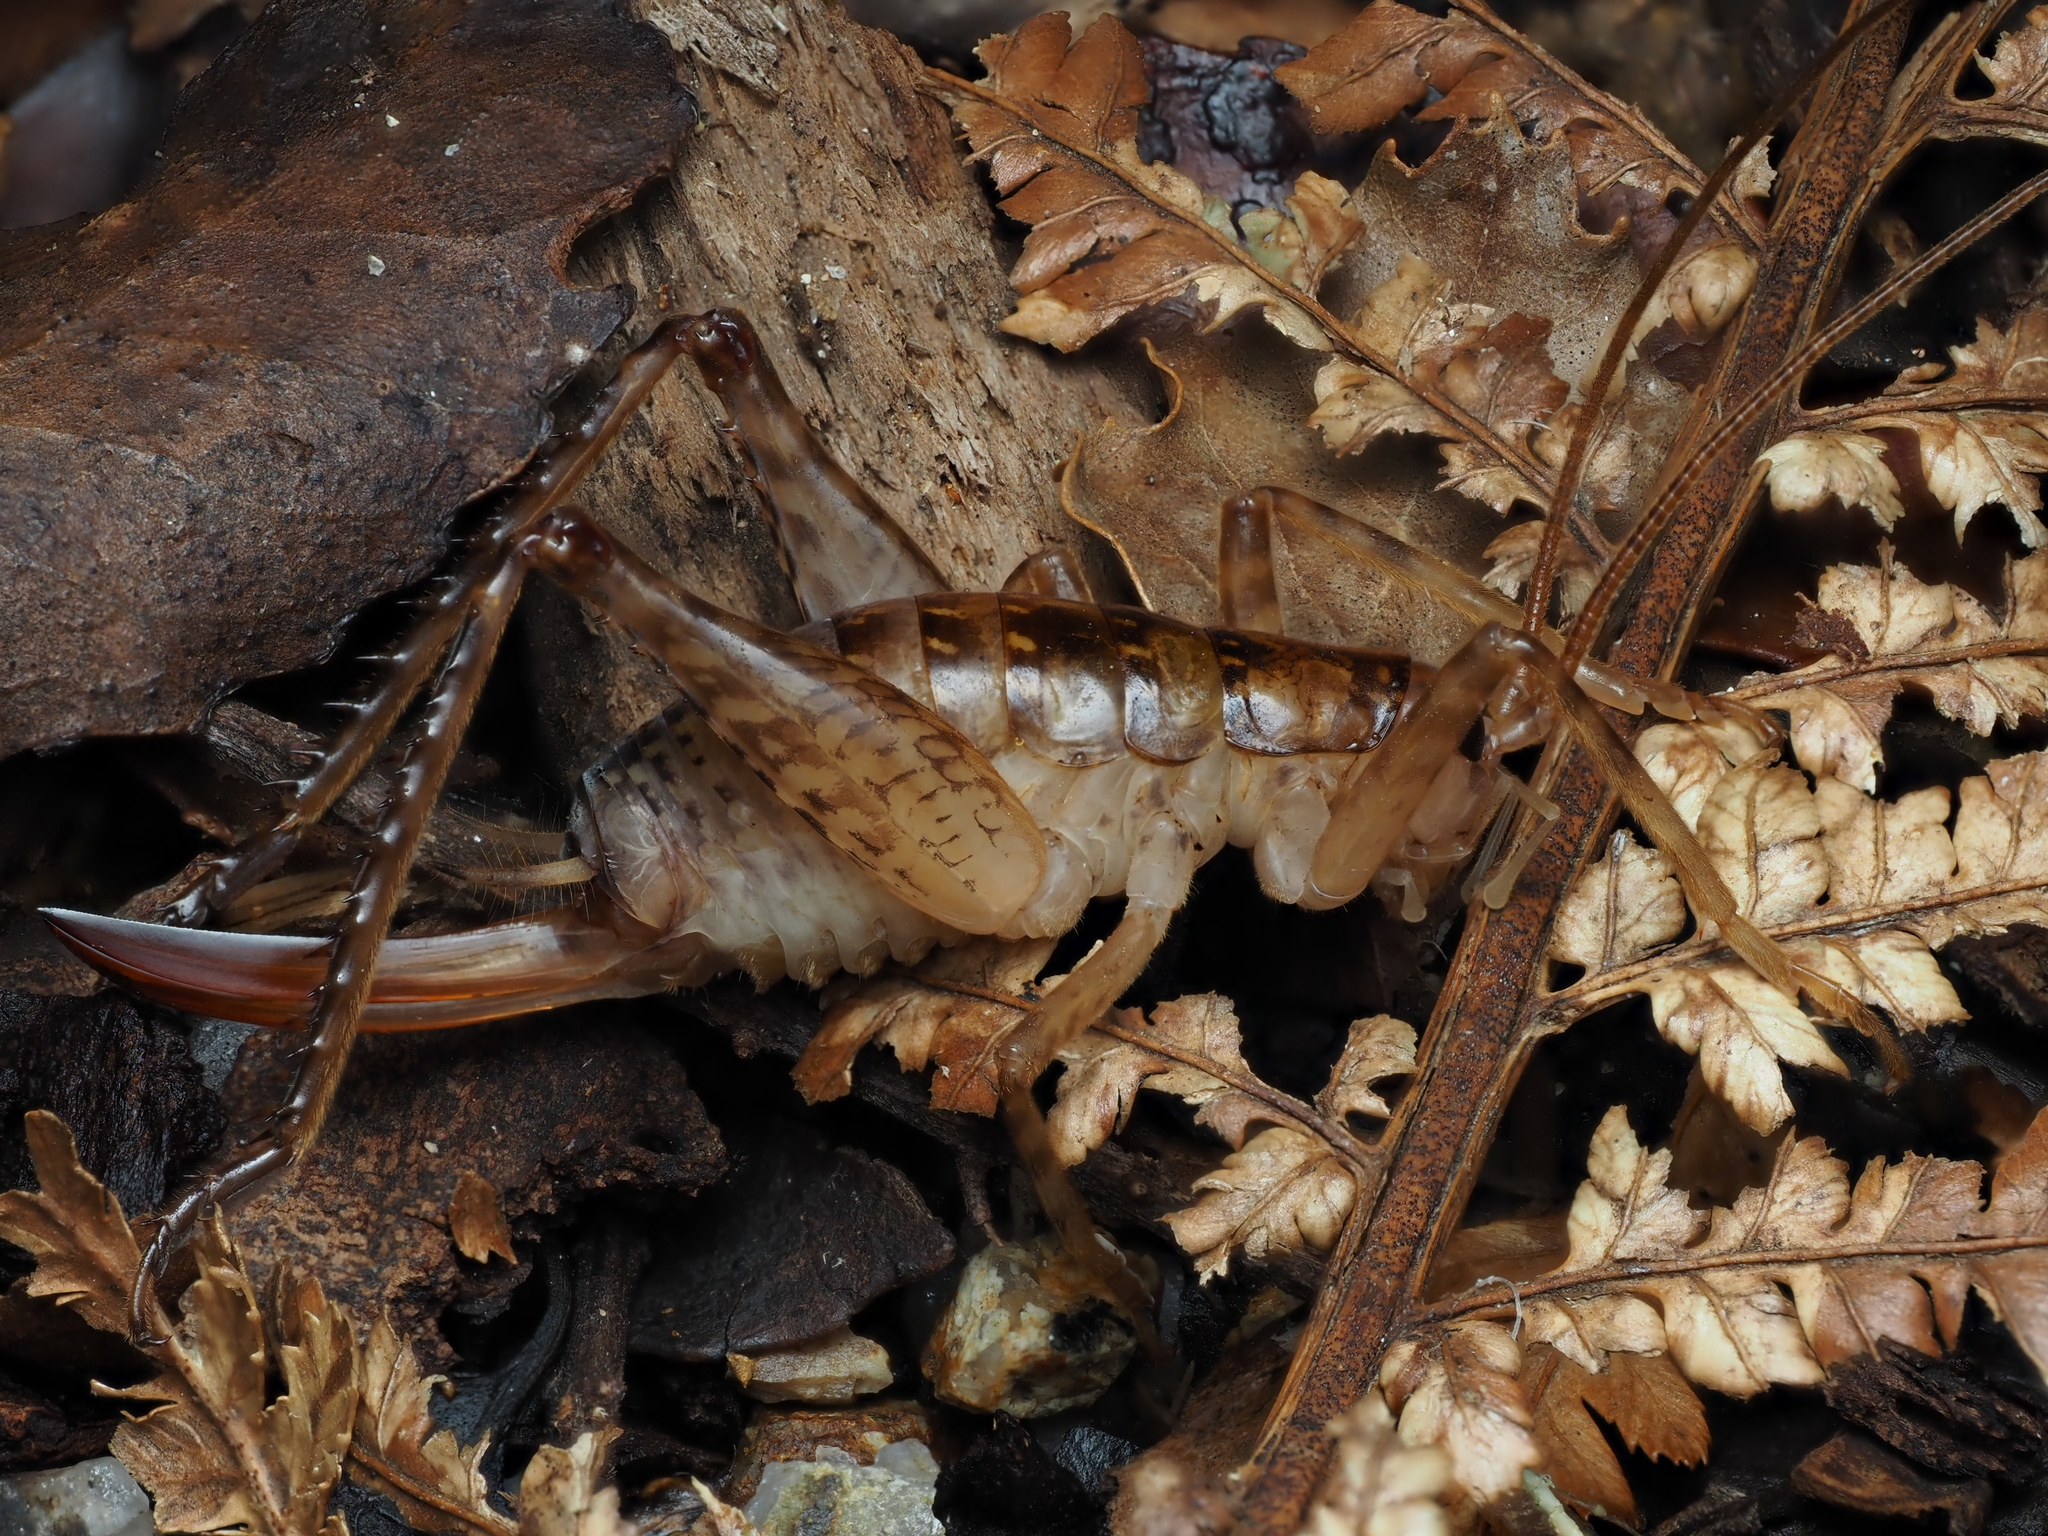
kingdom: Animalia
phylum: Arthropoda
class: Insecta
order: Orthoptera
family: Rhaphidophoridae
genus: Talitropsis
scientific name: Talitropsis sedilloti
